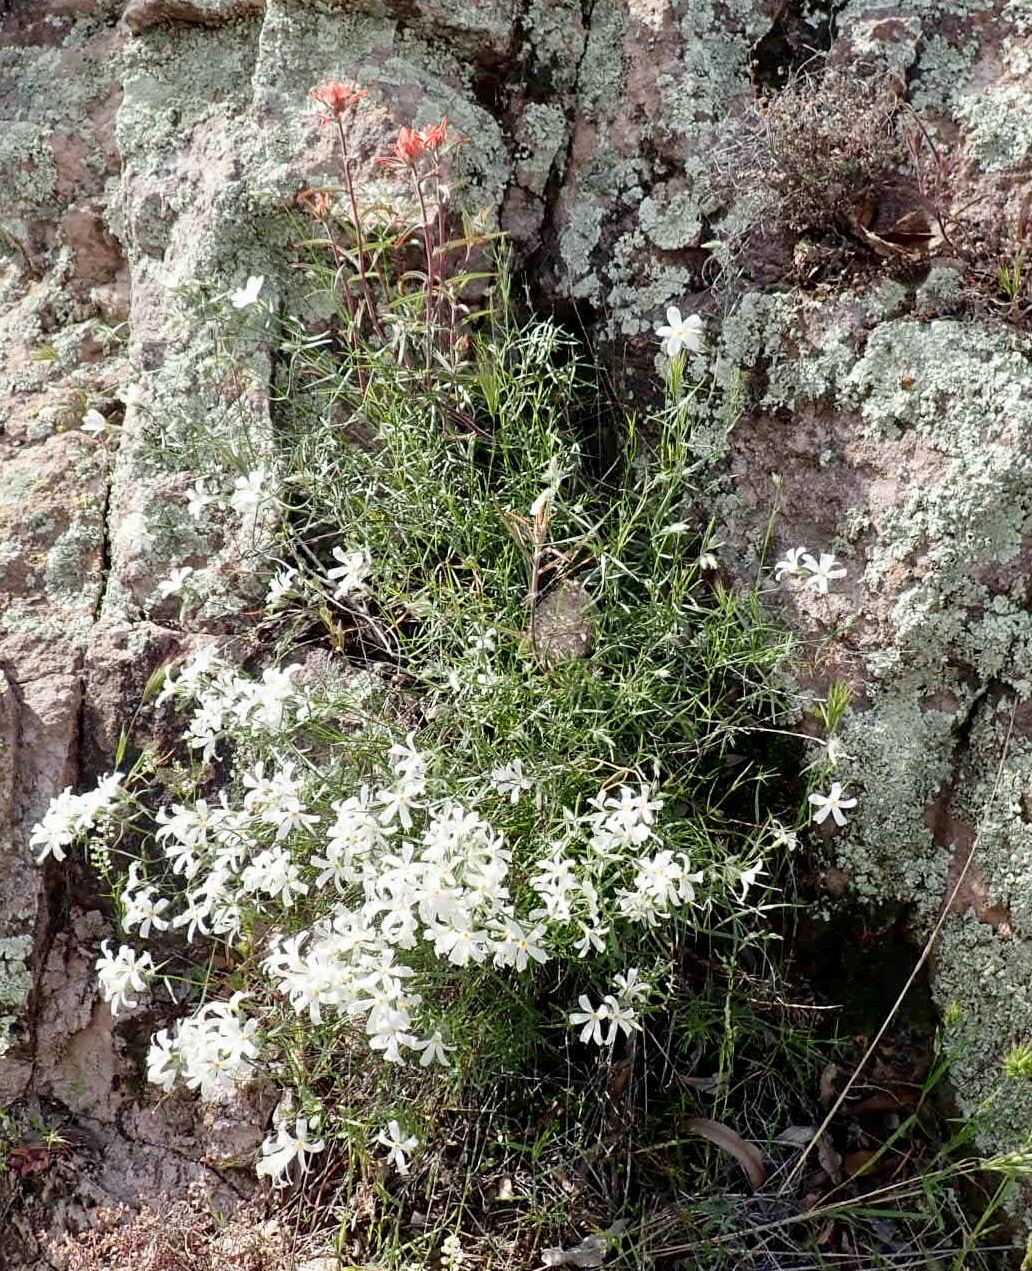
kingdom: Plantae
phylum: Tracheophyta
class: Magnoliopsida
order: Ericales
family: Polemoniaceae
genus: Phlox
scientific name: Phlox tenuifolia
